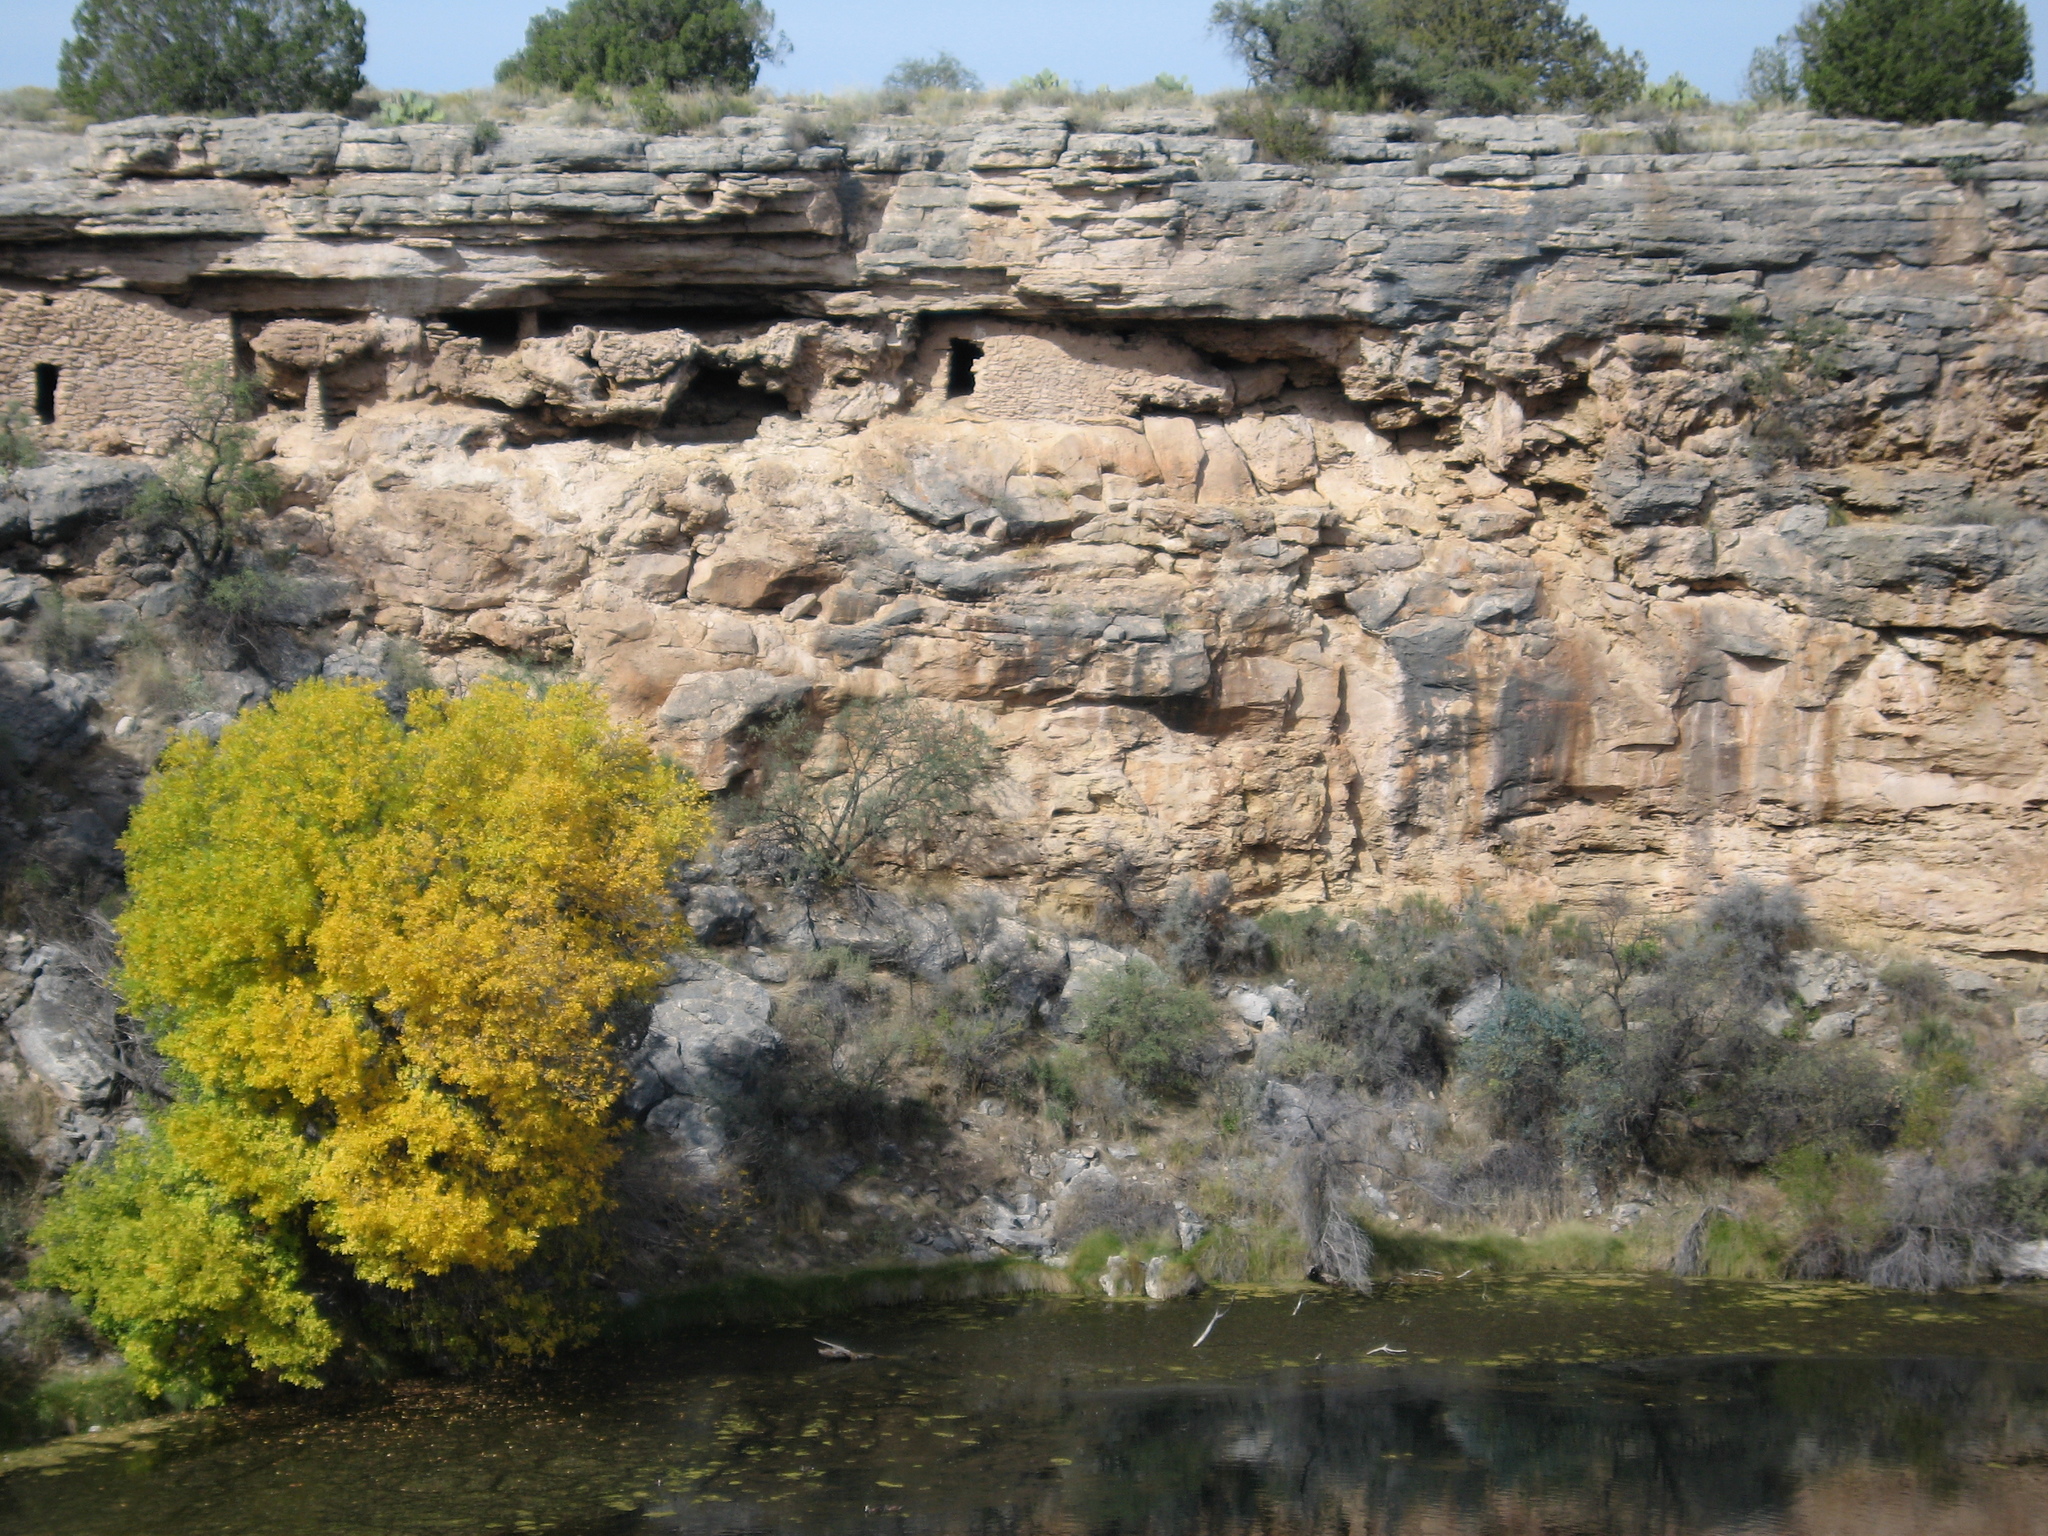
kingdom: Plantae
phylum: Tracheophyta
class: Magnoliopsida
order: Lamiales
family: Oleaceae
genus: Fraxinus
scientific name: Fraxinus velutina
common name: Arizon ash
